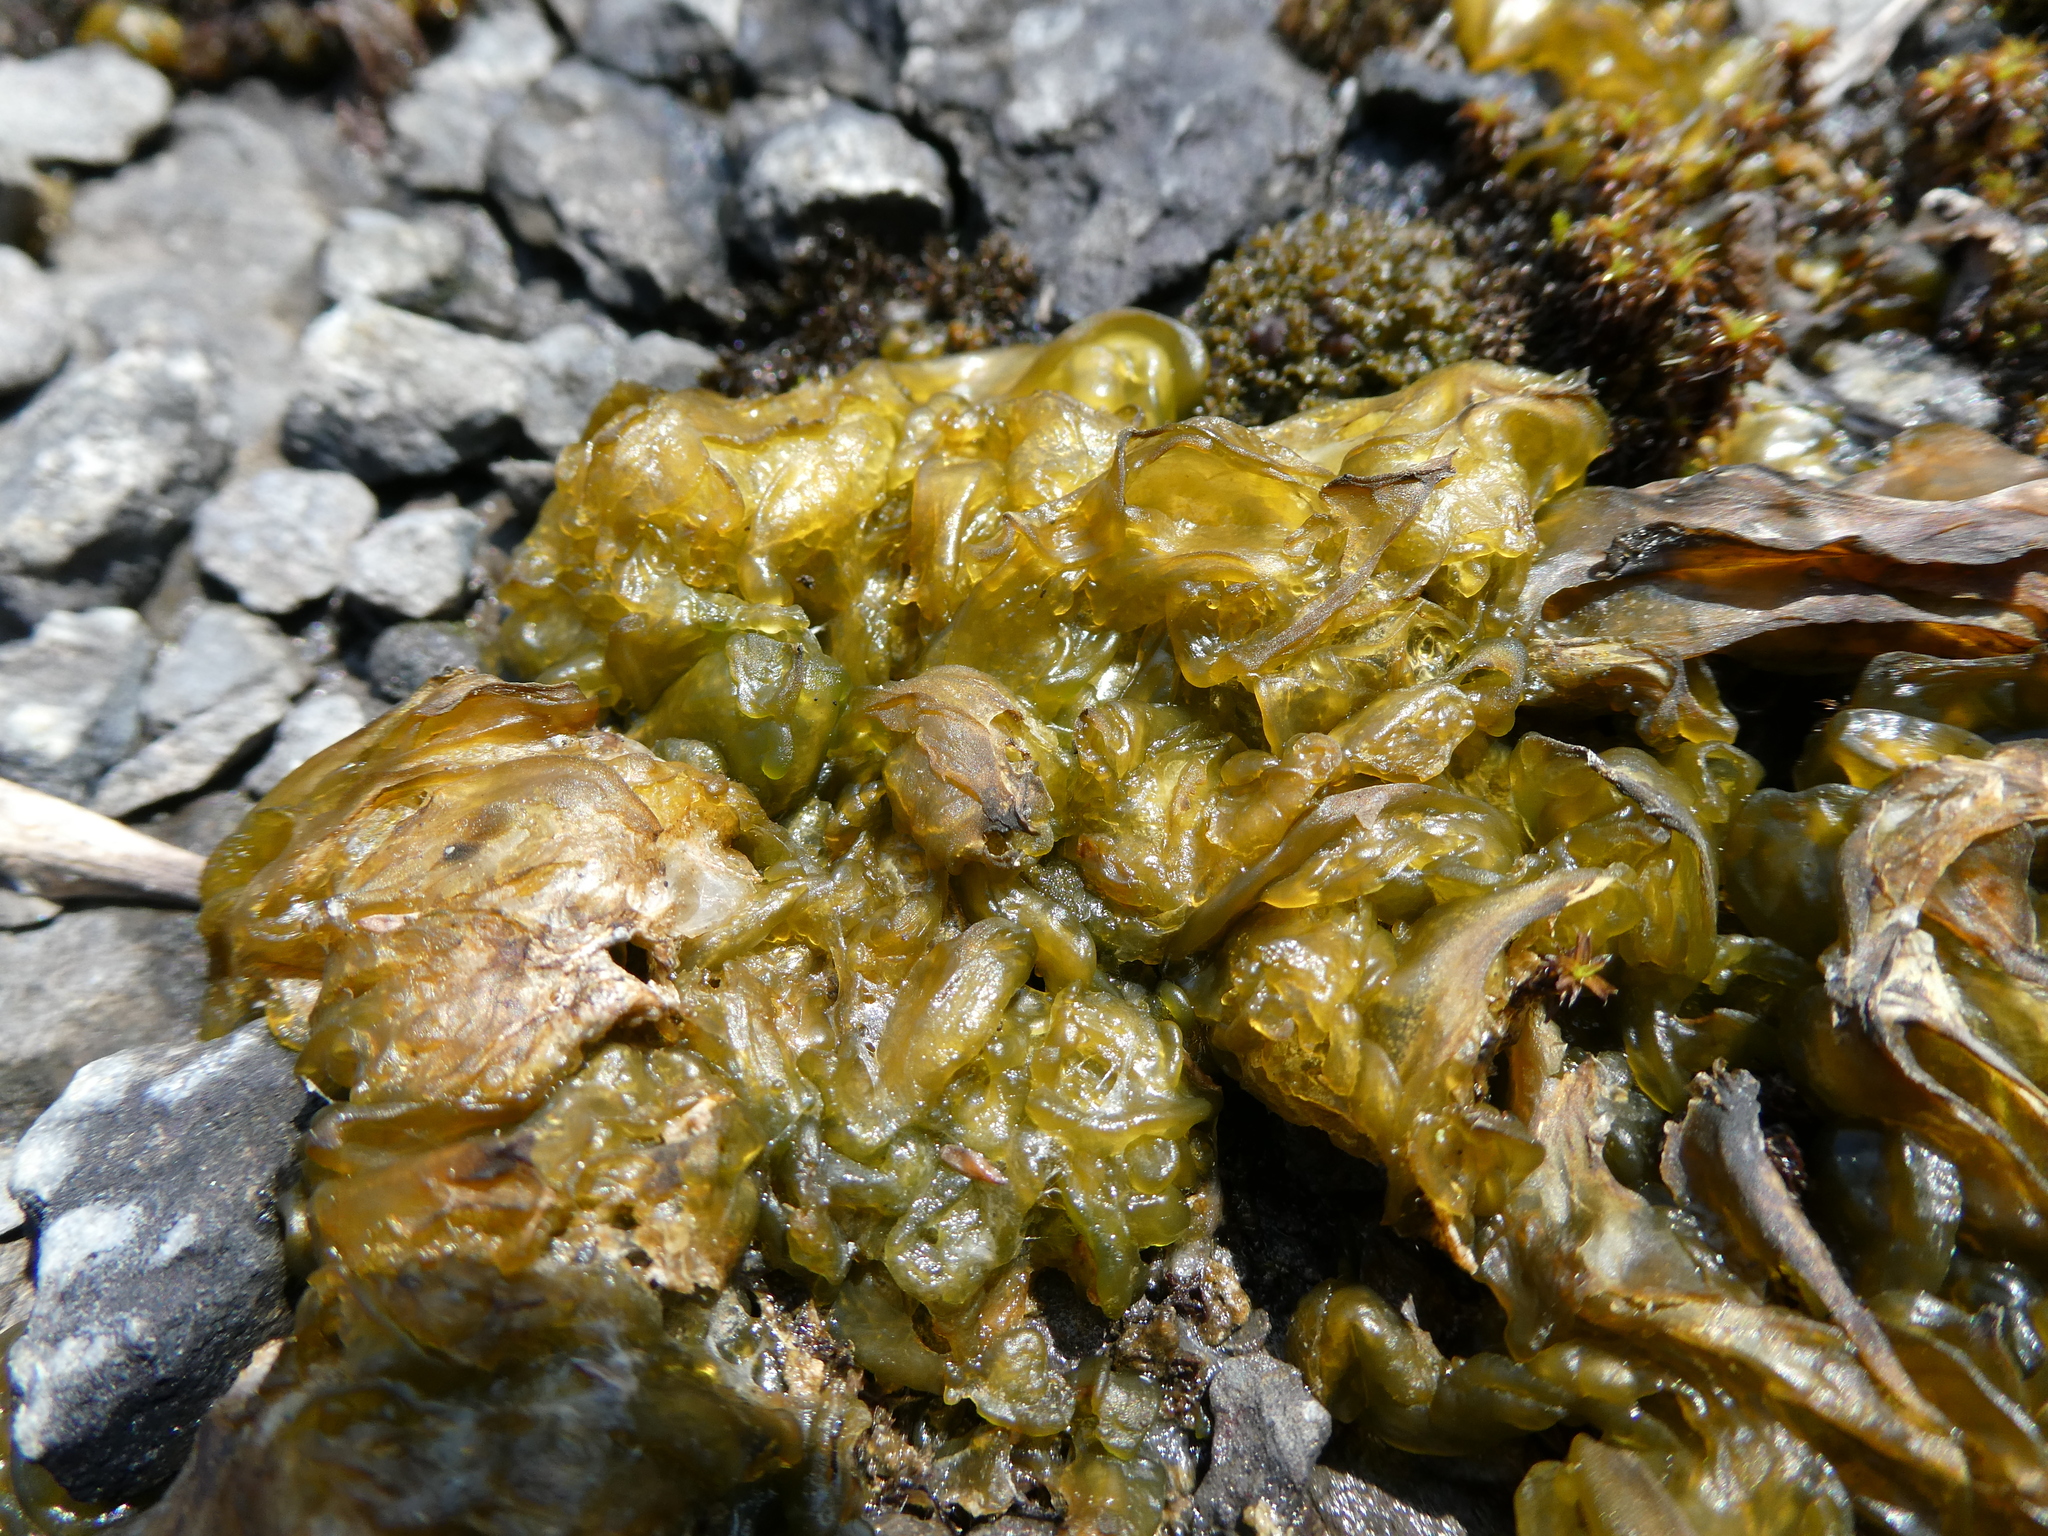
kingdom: Bacteria
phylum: Cyanobacteria
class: Cyanobacteriia
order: Cyanobacteriales
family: Nostocaceae
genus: Nostoc
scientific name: Nostoc commune
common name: Star jelly
